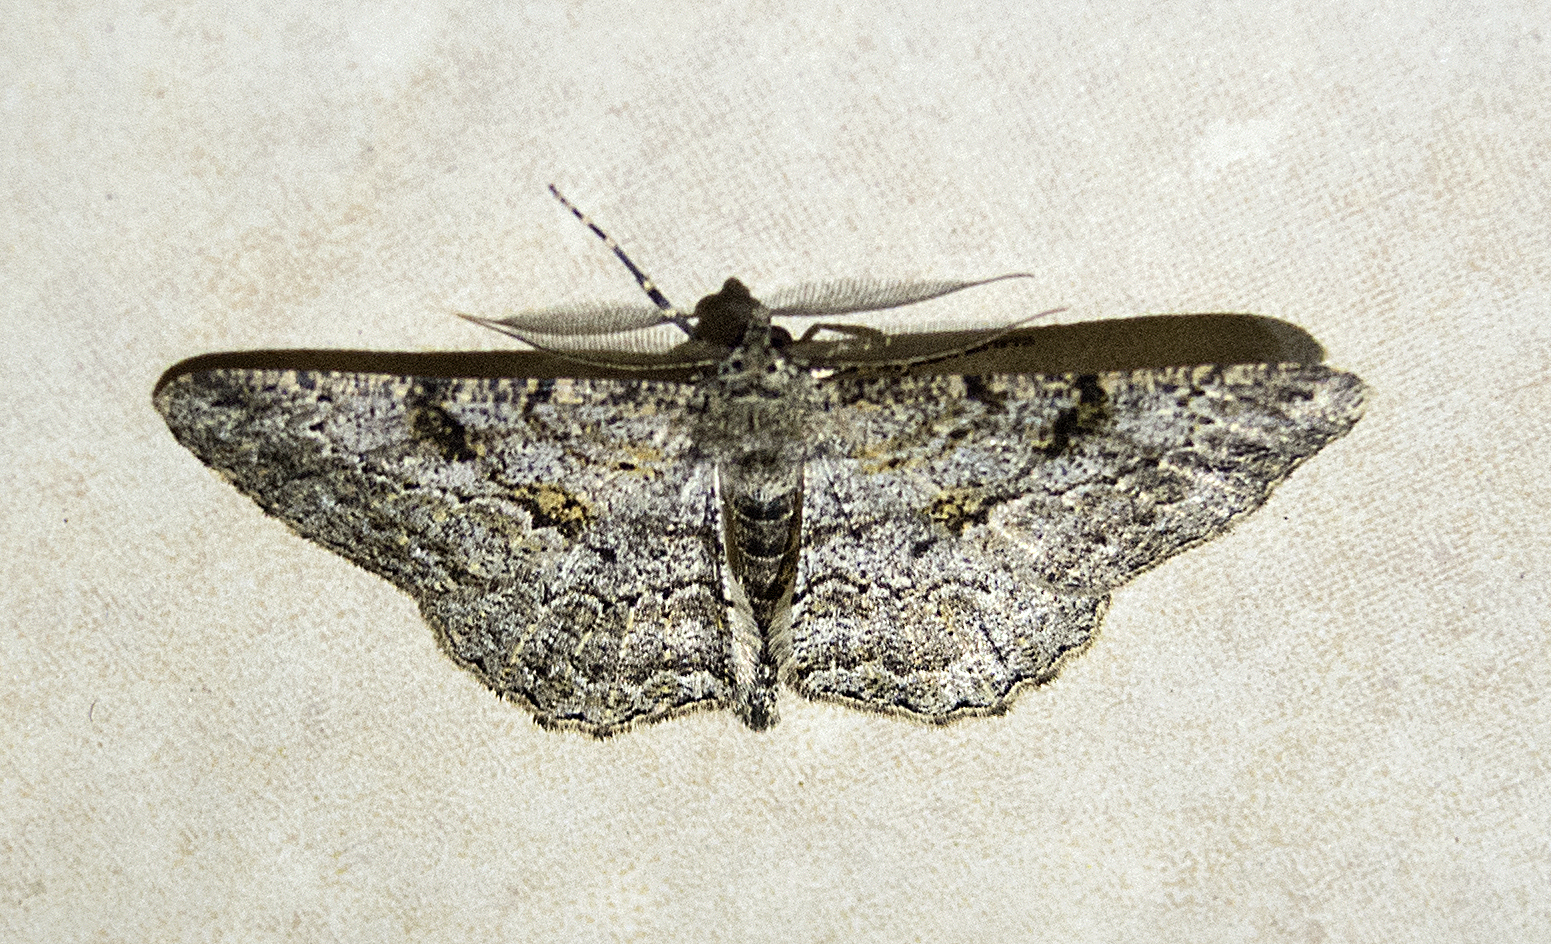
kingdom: Animalia
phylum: Arthropoda
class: Insecta
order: Lepidoptera
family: Geometridae
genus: Peribatodes
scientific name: Peribatodes rhomboidaria
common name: Willow beauty
